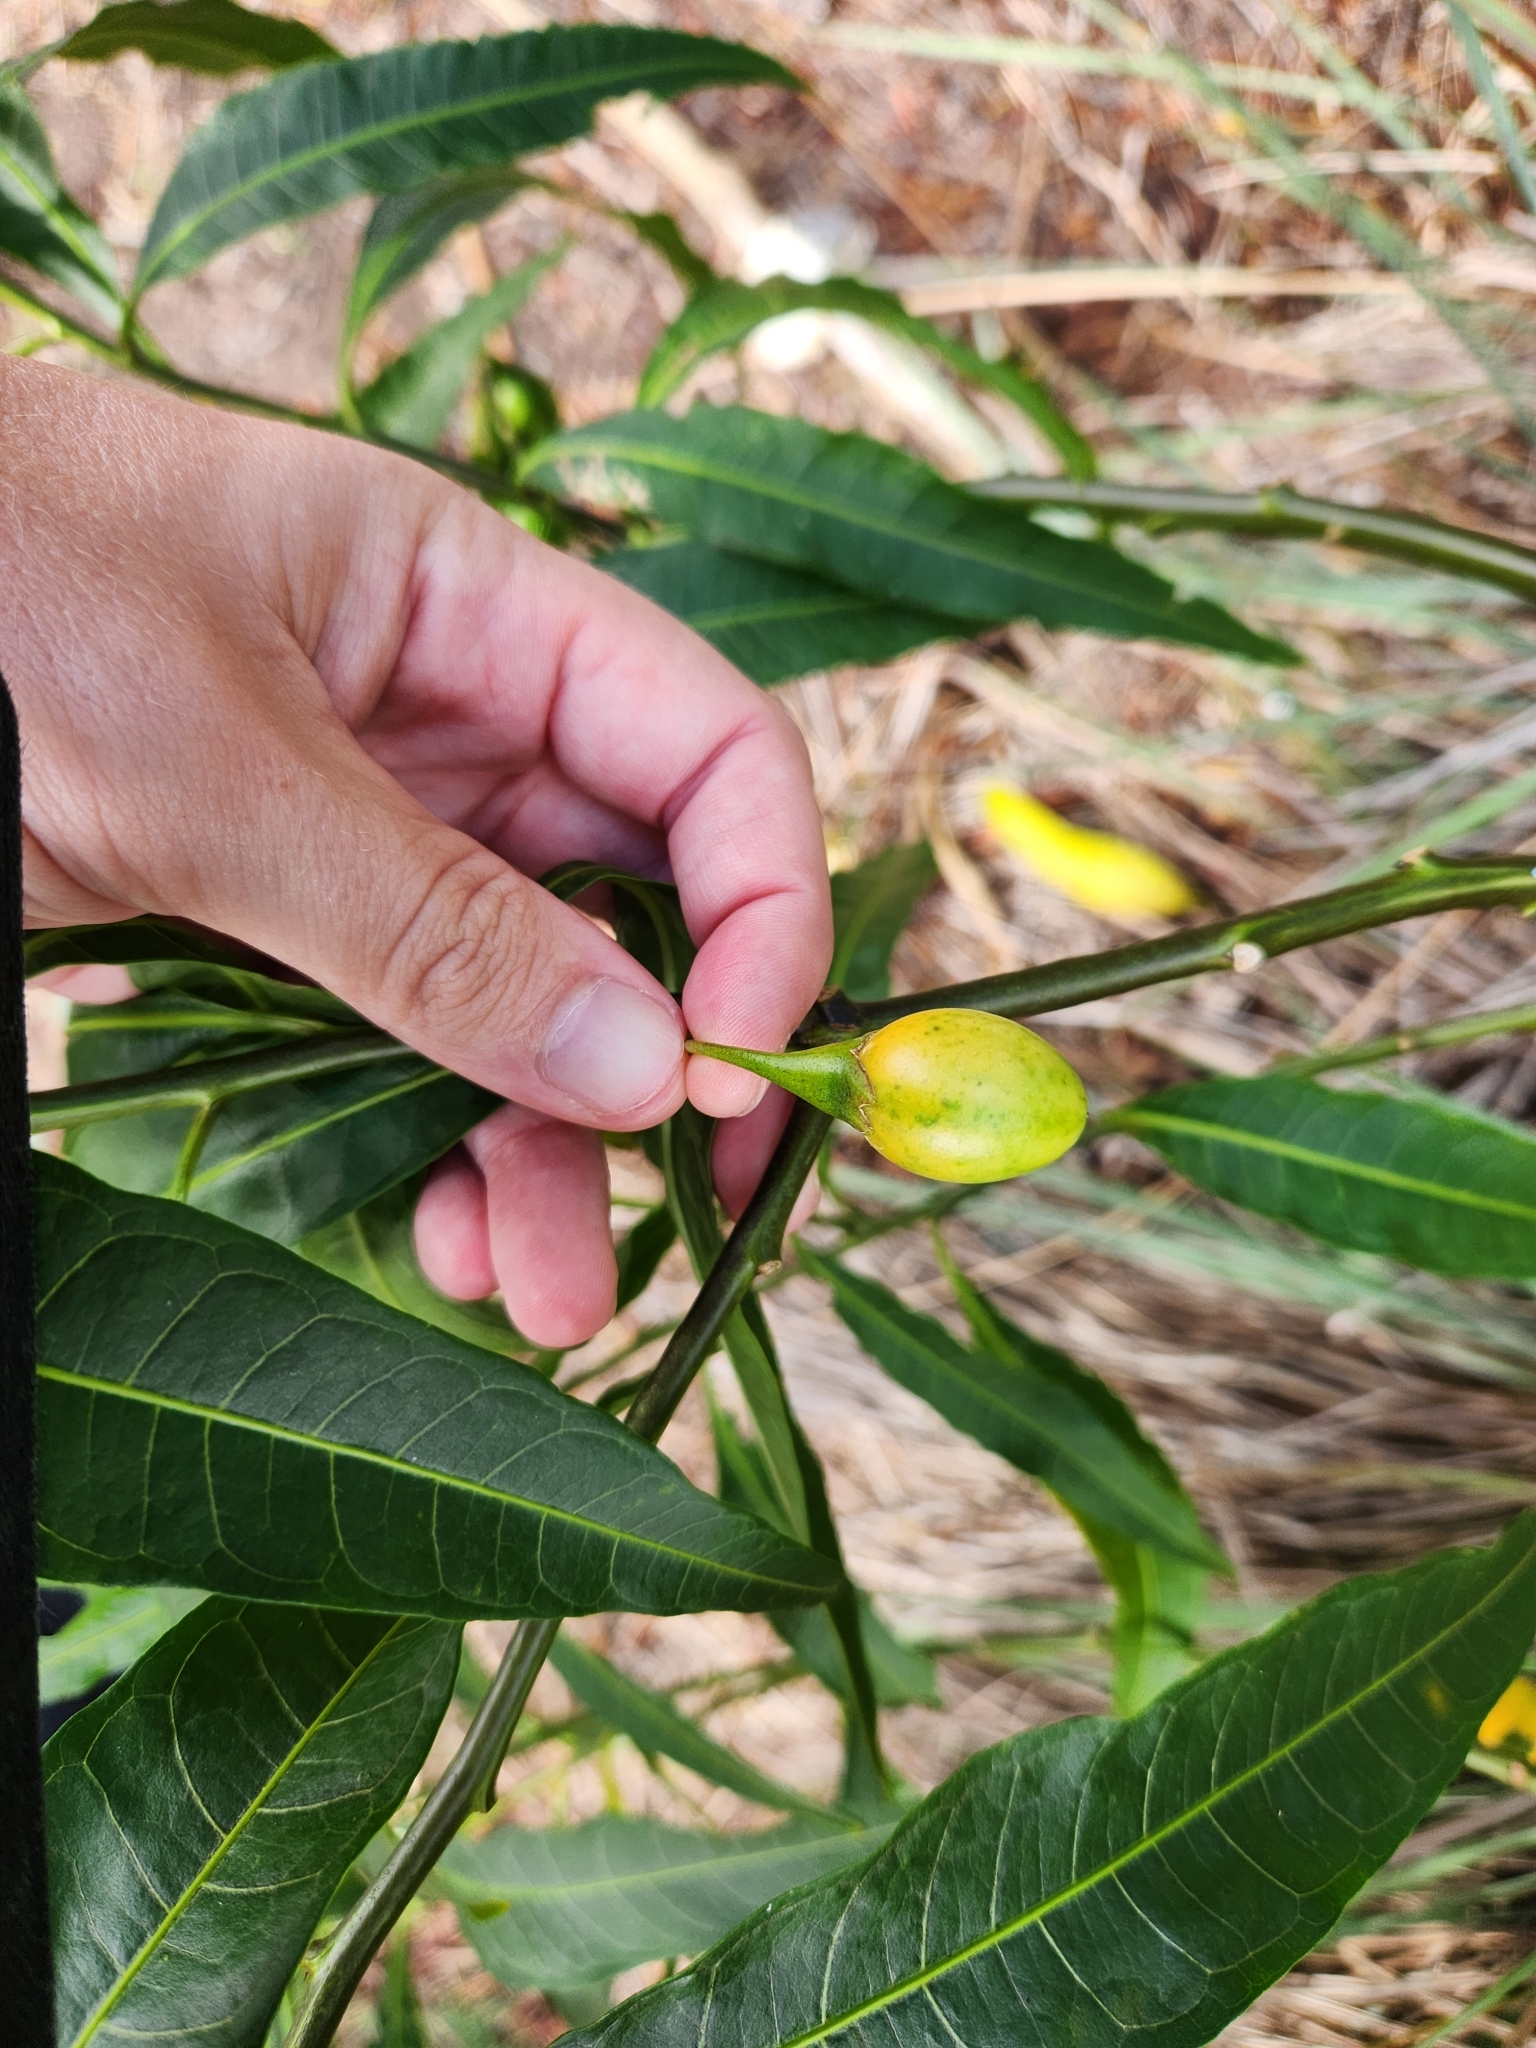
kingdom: Plantae
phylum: Tracheophyta
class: Magnoliopsida
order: Solanales
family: Solanaceae
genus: Solanum
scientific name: Solanum aviculare
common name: New zealand nightshade
